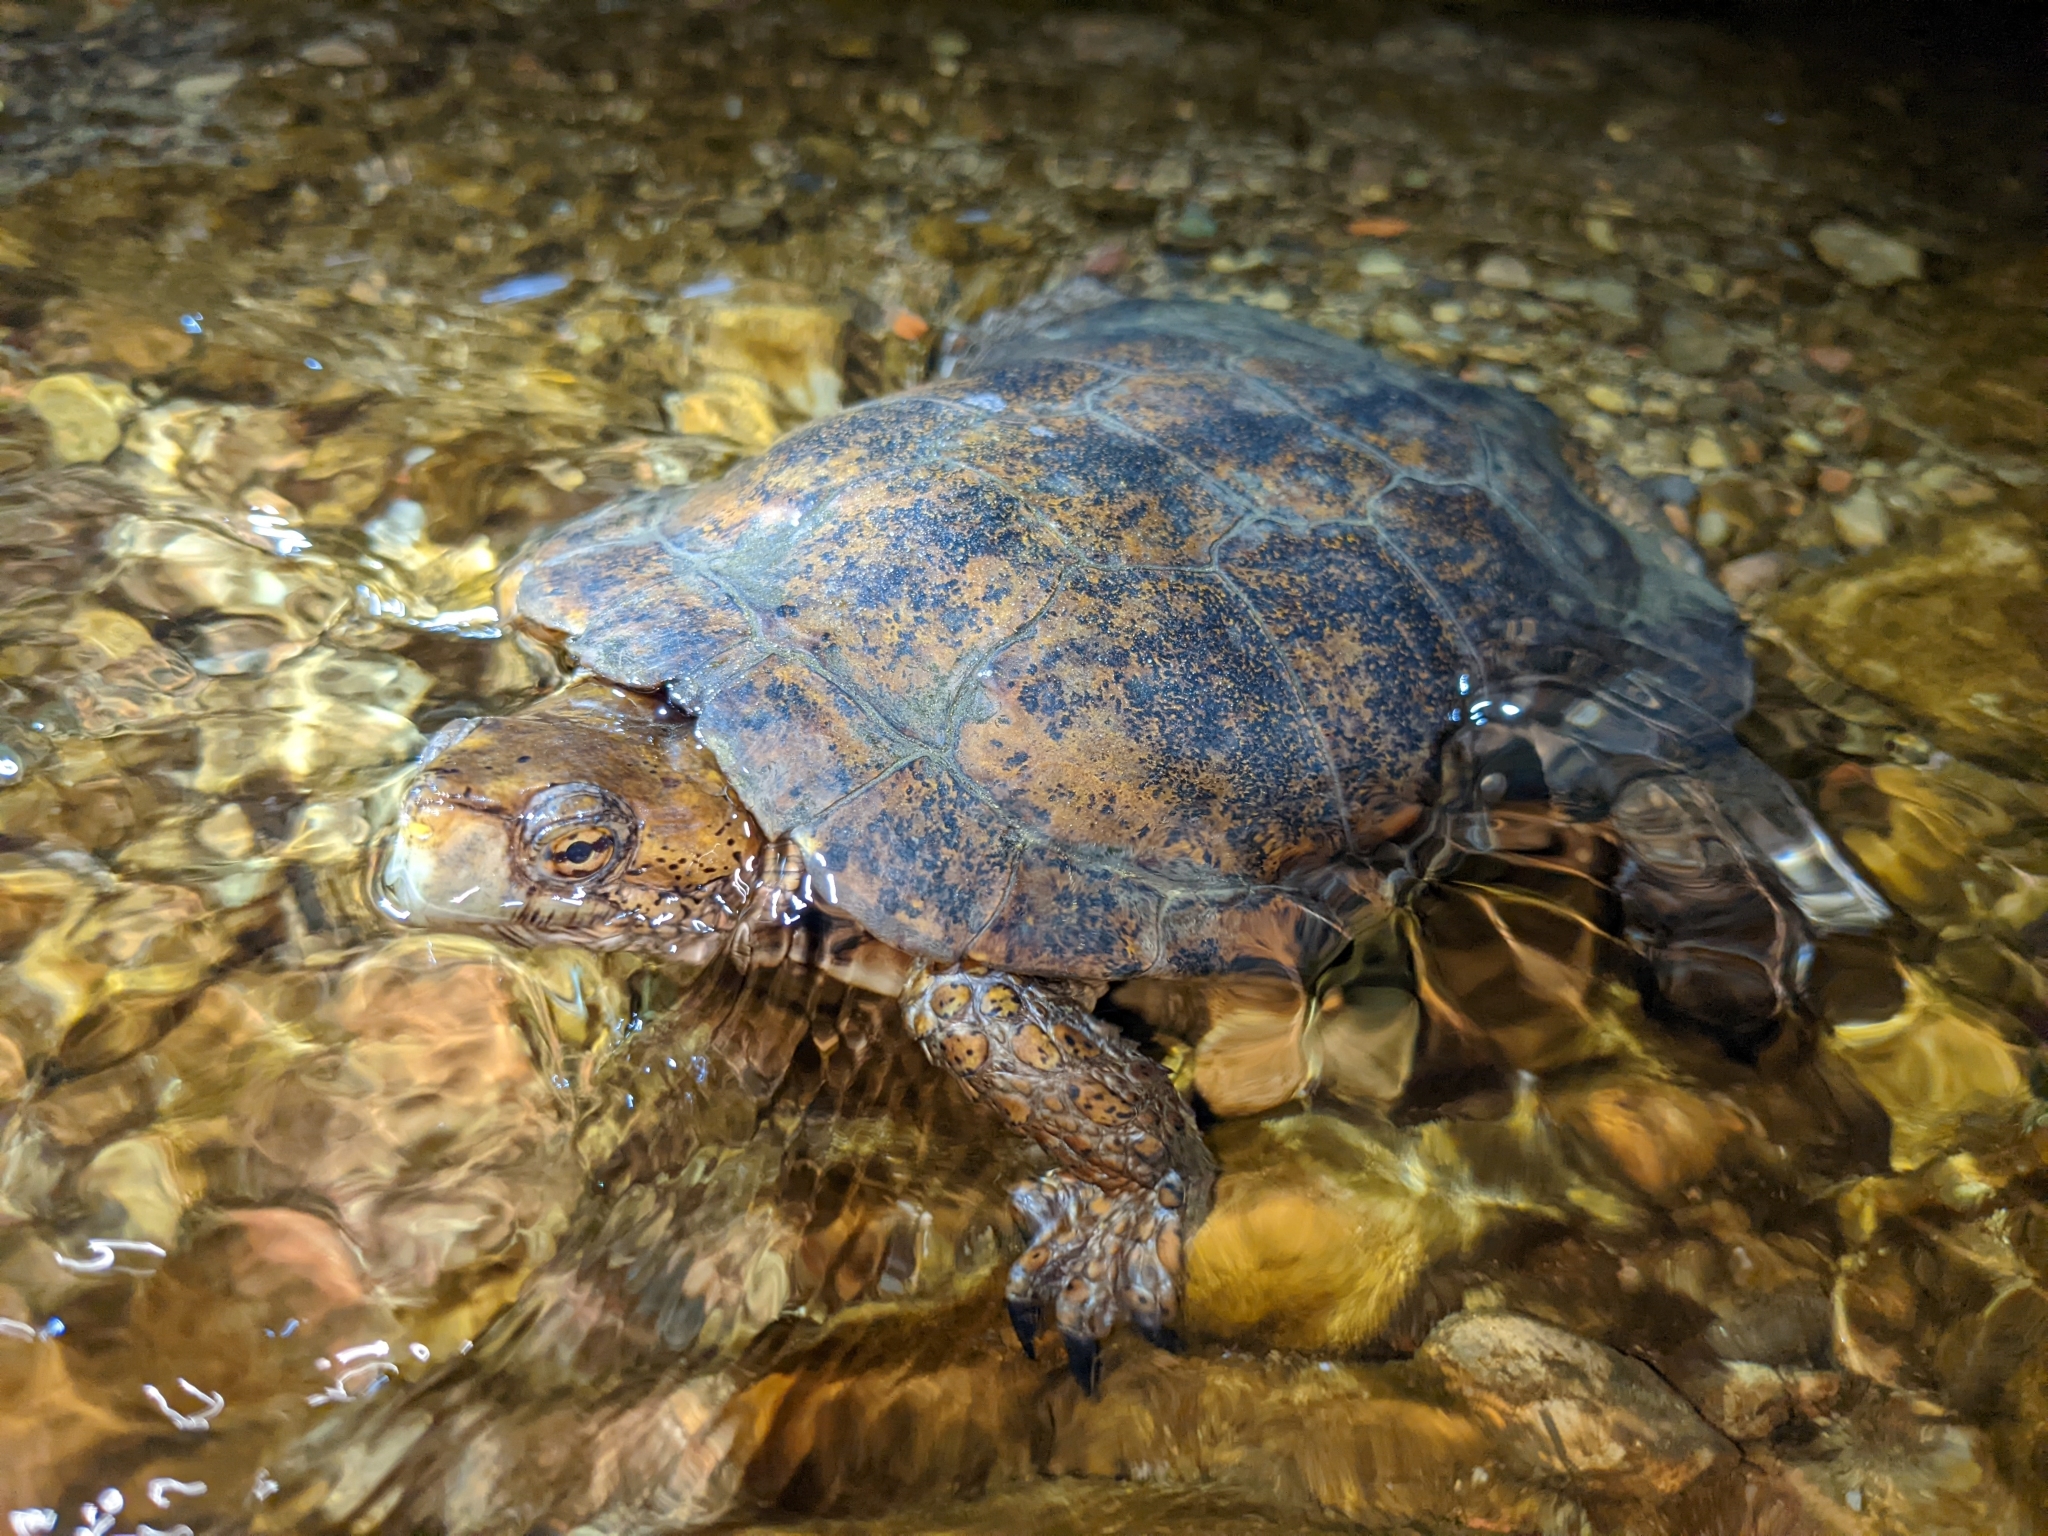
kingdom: Animalia
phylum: Chordata
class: Testudines
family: Emydidae
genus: Actinemys
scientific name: Actinemys marmorata
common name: Western pond turtle
